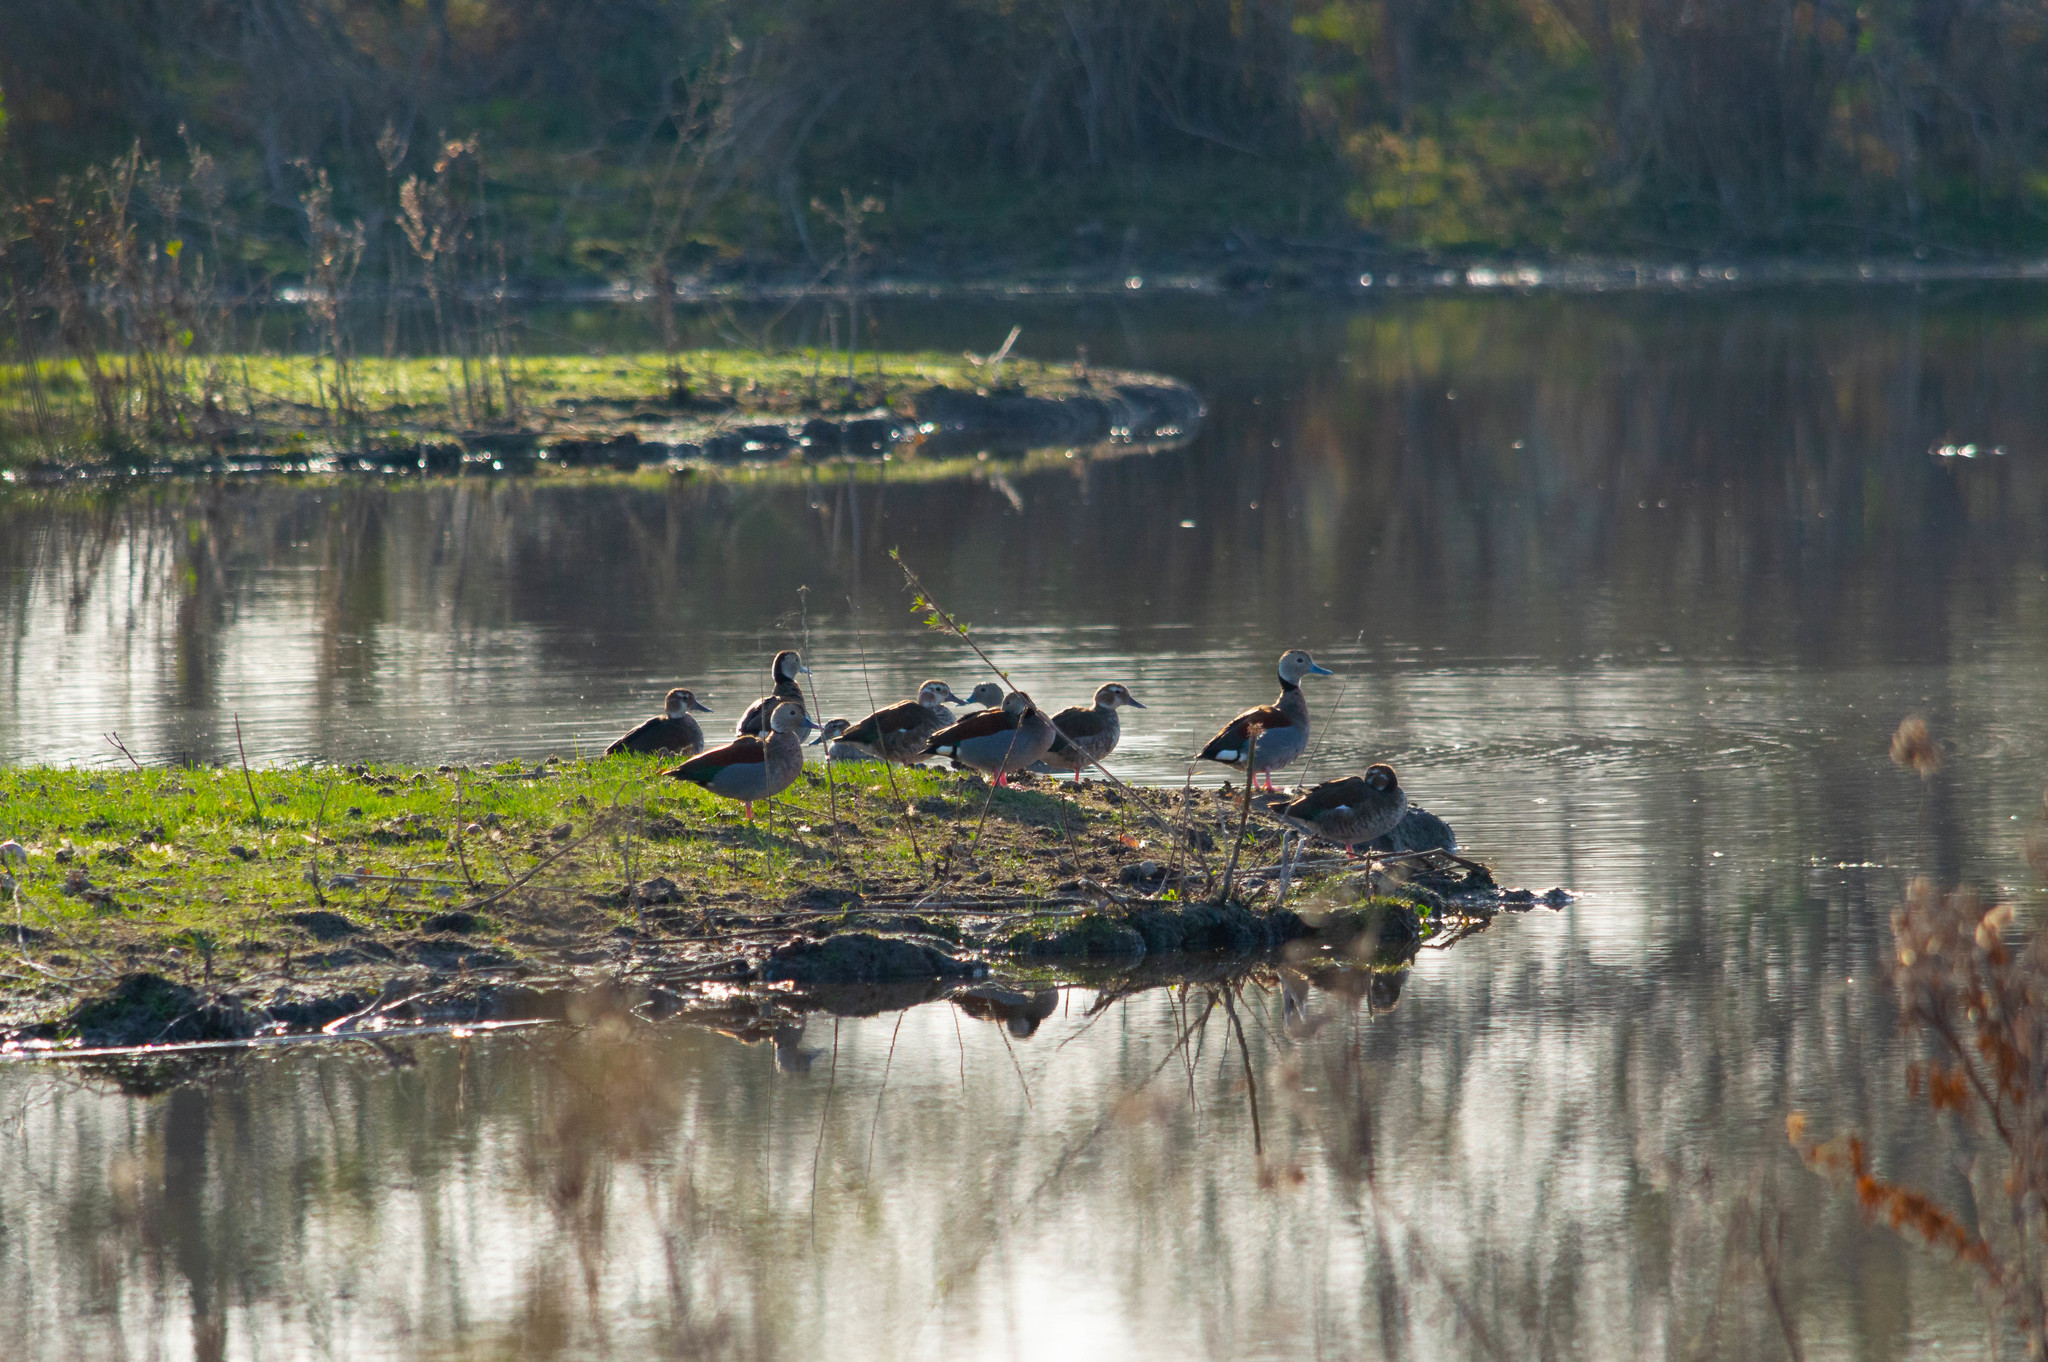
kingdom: Animalia
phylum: Chordata
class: Aves
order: Anseriformes
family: Anatidae
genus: Callonetta
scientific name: Callonetta leucophrys
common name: Ringed teal
